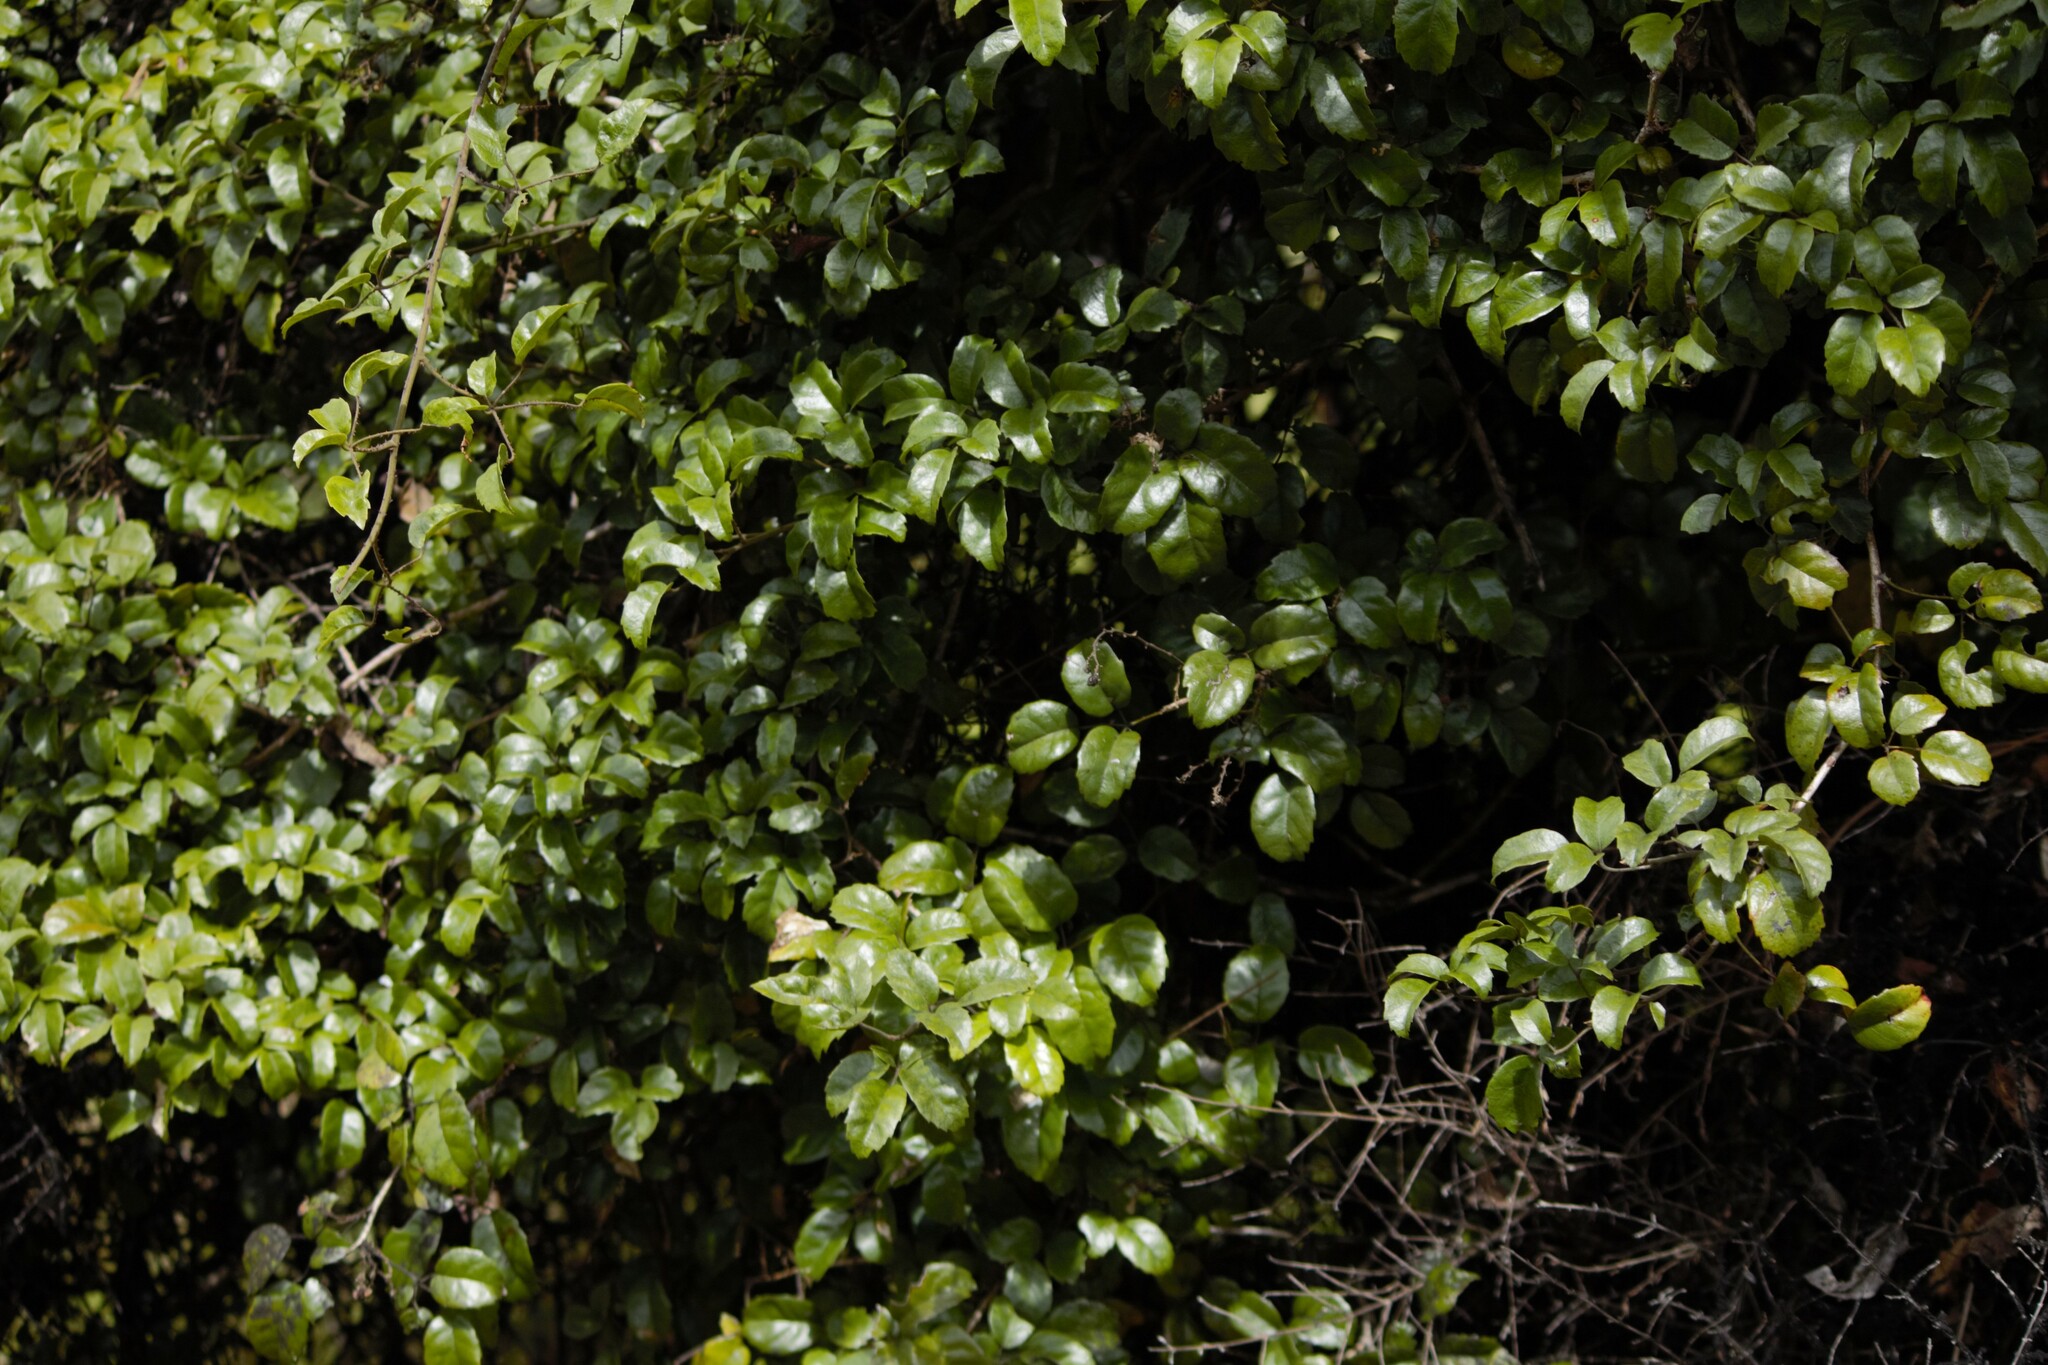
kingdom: Plantae
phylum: Tracheophyta
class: Magnoliopsida
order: Rosales
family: Rosaceae
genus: Rubus
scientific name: Rubus australis
